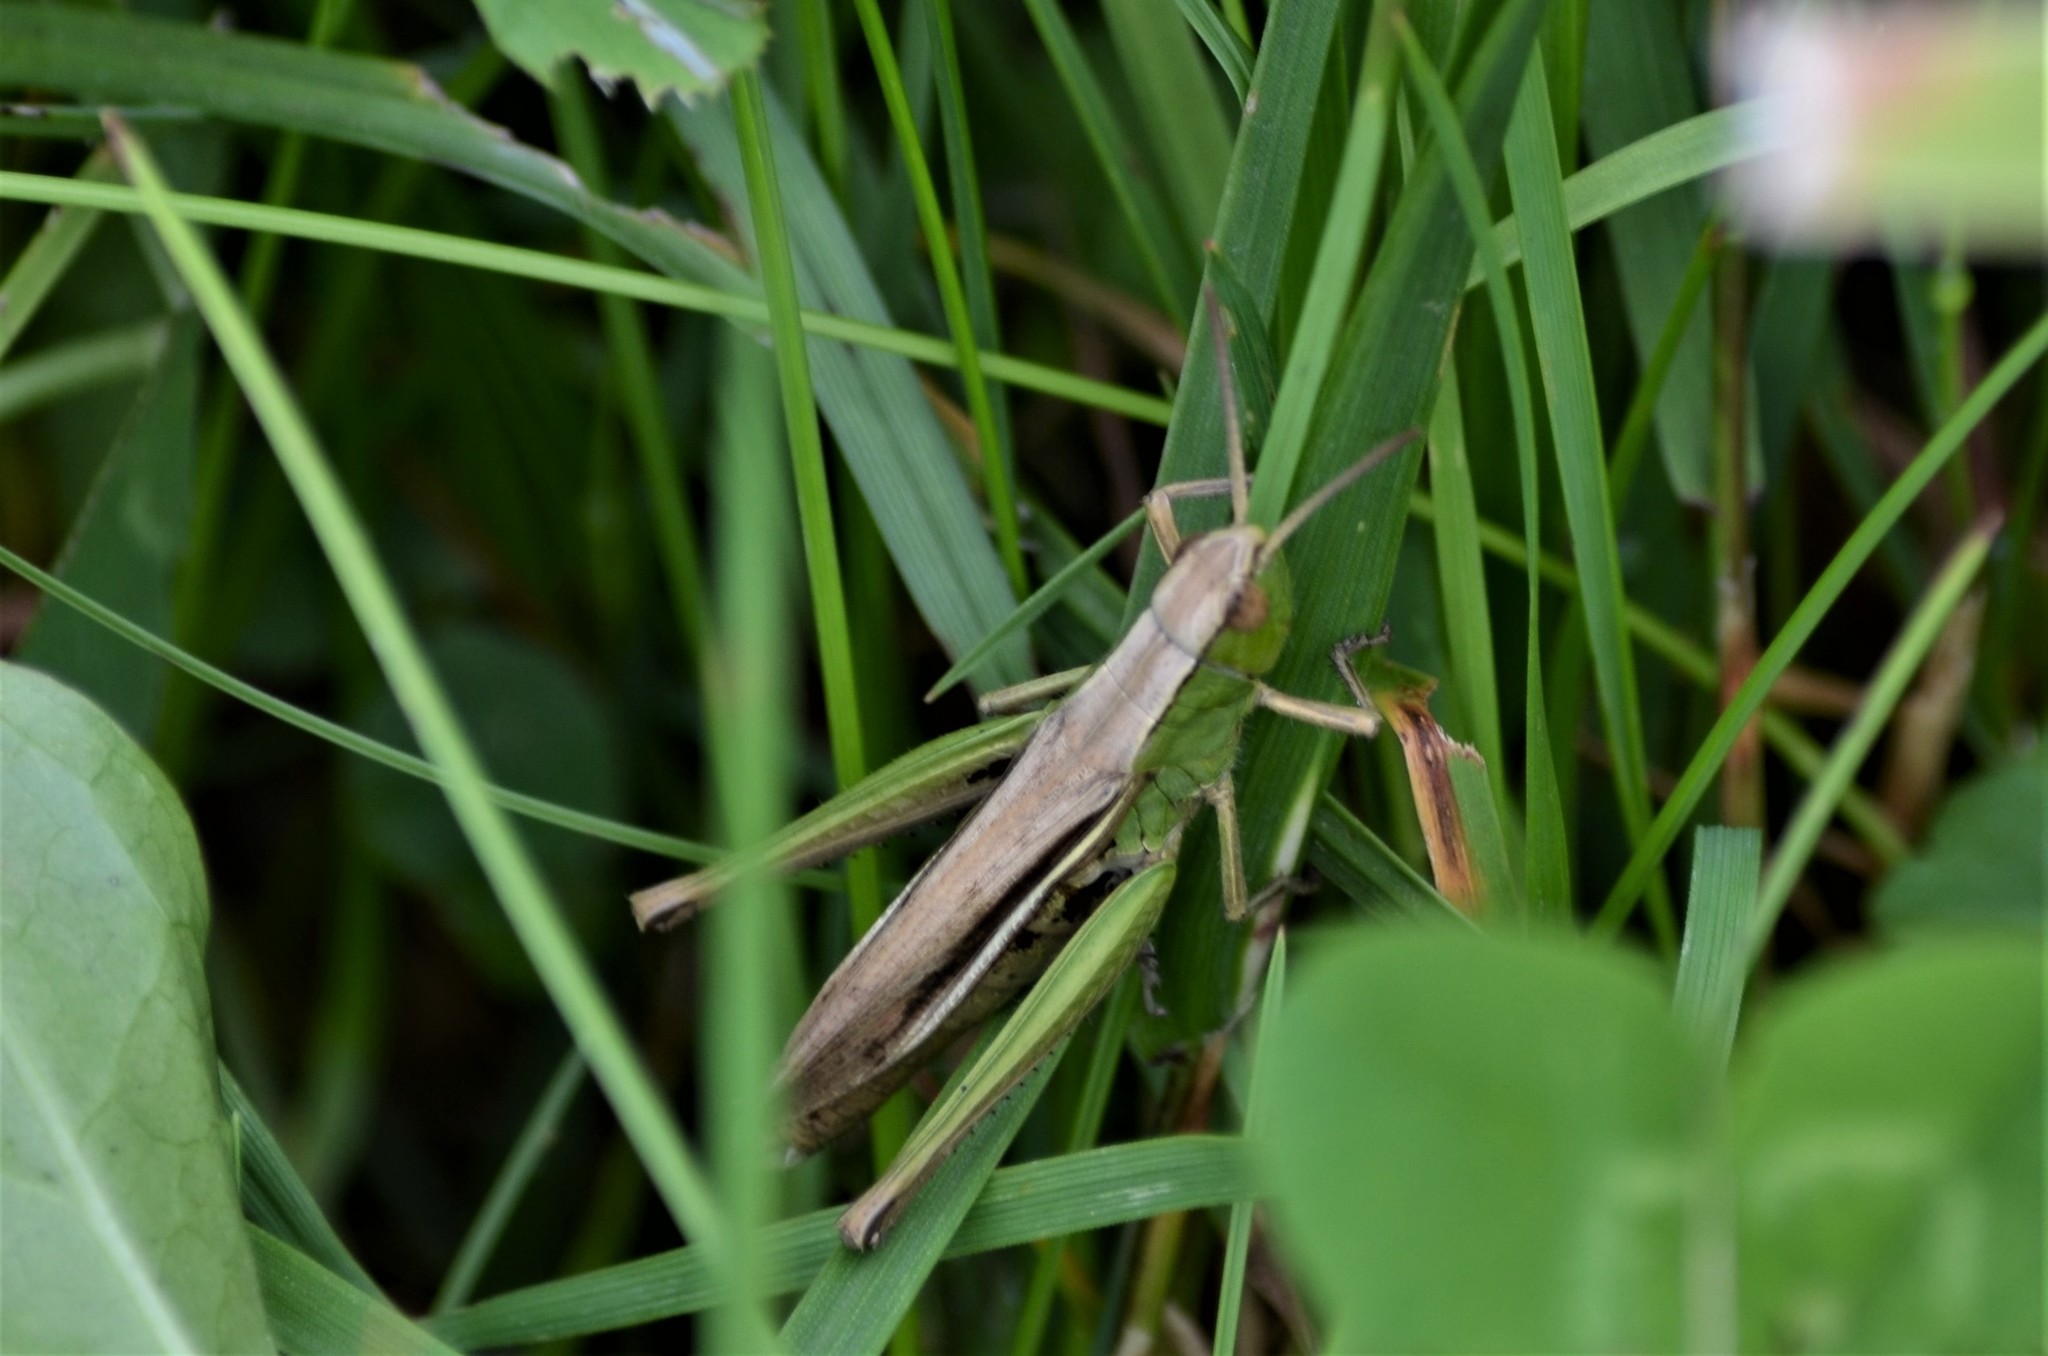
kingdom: Animalia
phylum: Arthropoda
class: Insecta
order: Orthoptera
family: Acrididae
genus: Chorthippus
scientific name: Chorthippus albomarginatus
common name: Lesser marsh grasshopper
